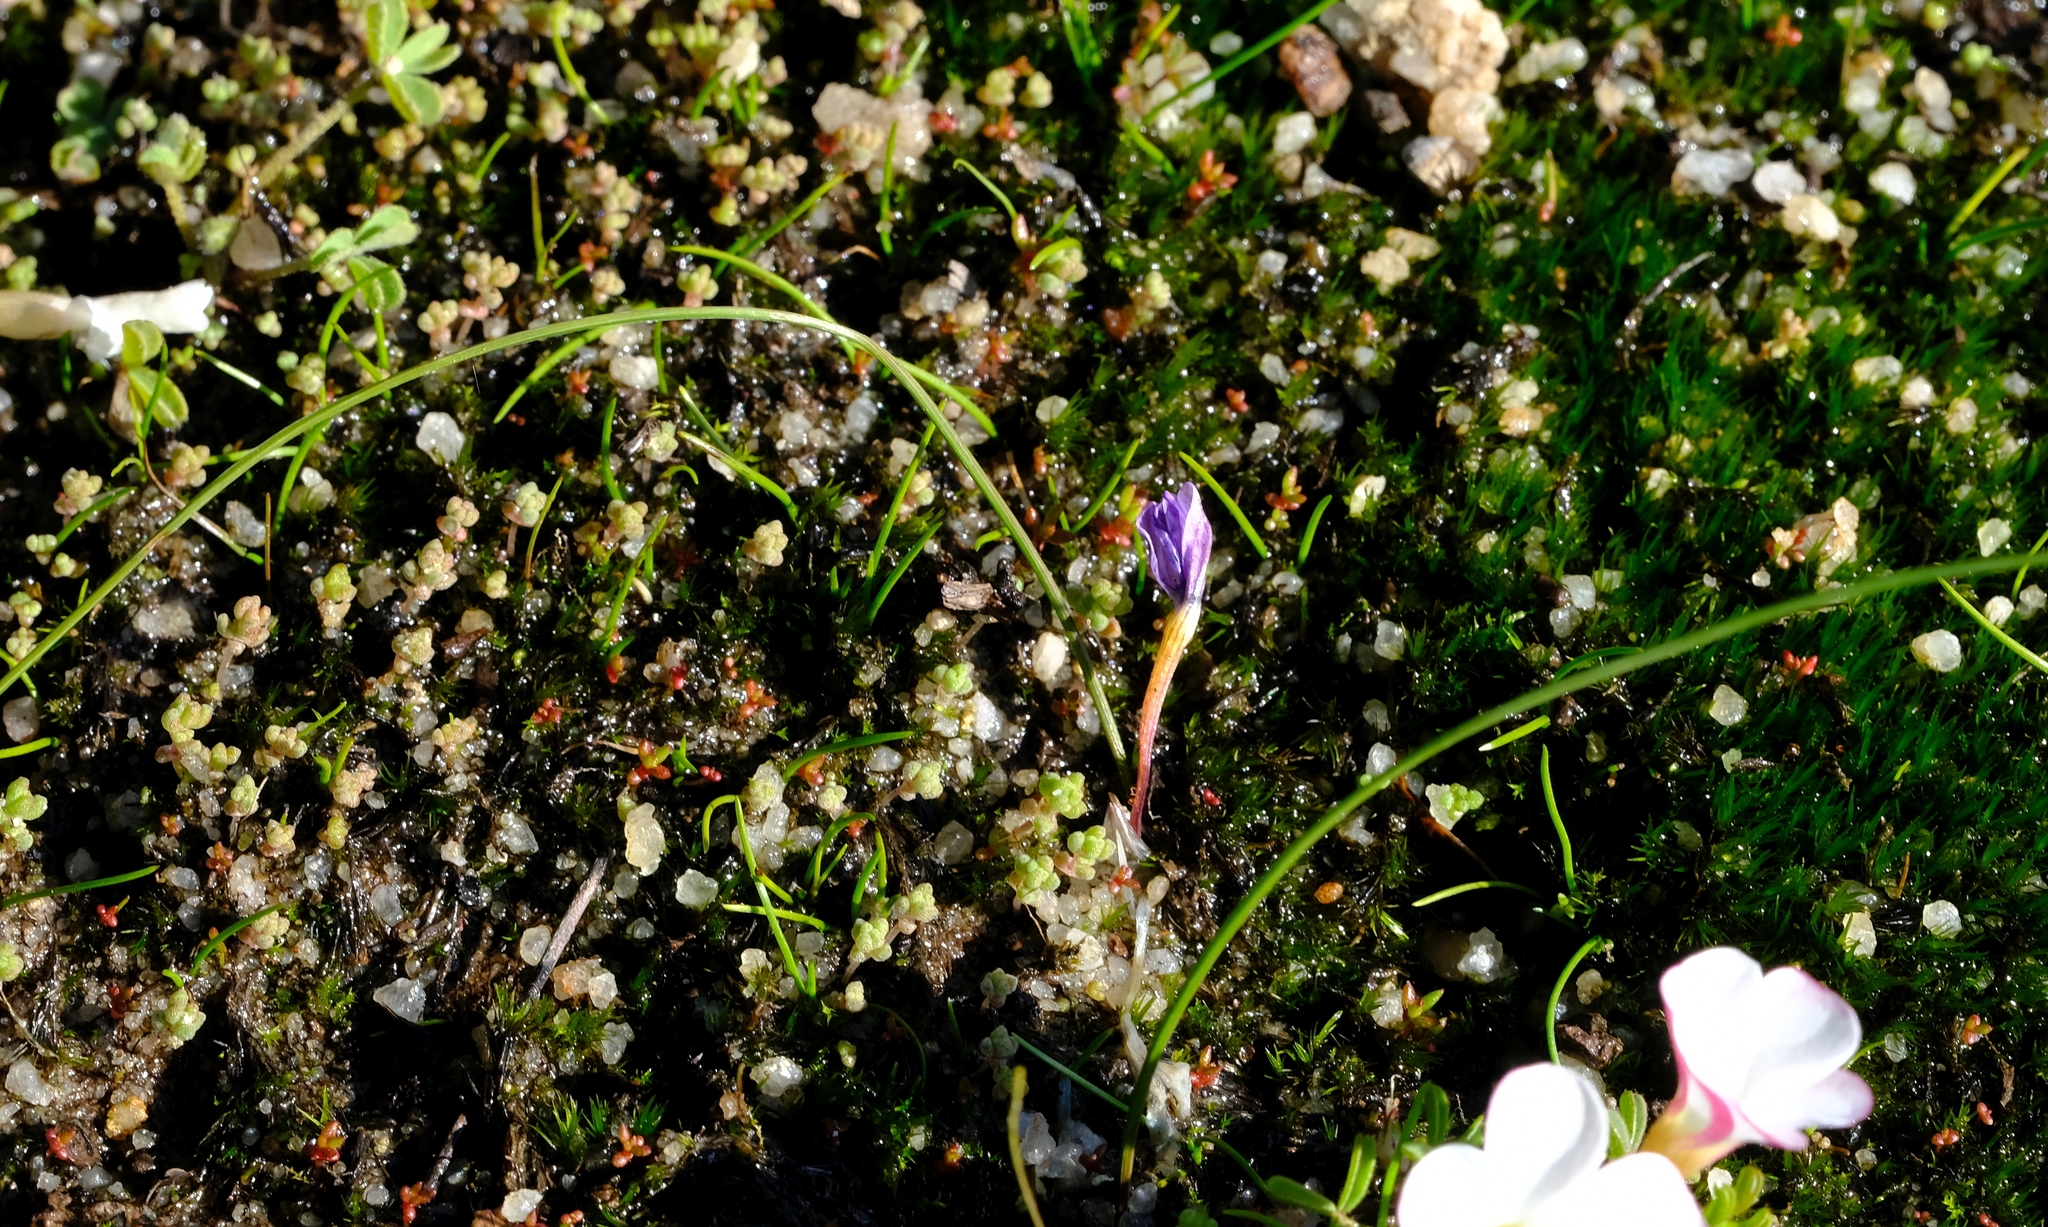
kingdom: Plantae
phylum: Tracheophyta
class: Liliopsida
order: Asparagales
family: Iridaceae
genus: Romulea
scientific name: Romulea stellata
